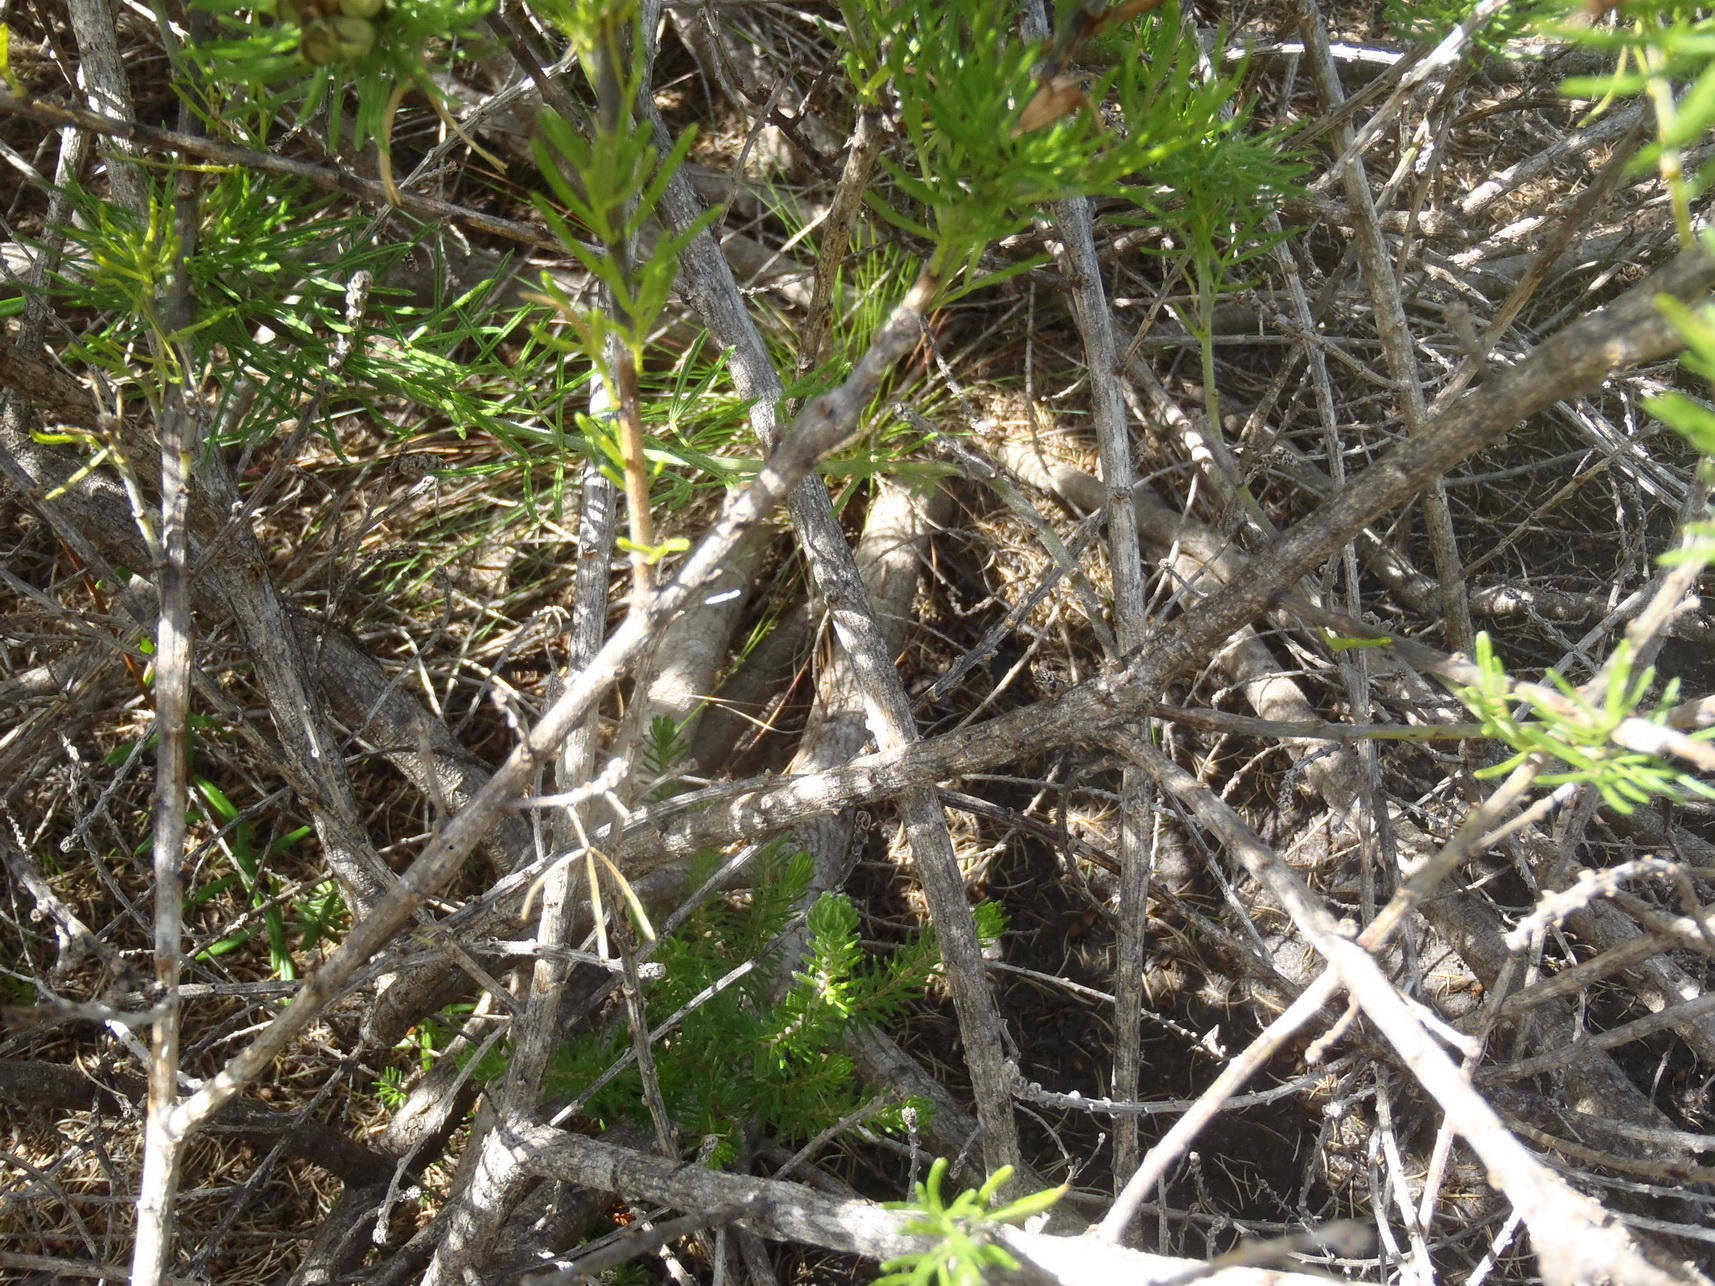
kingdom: Plantae
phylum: Tracheophyta
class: Magnoliopsida
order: Fabales
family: Fabaceae
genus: Psoralea
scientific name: Psoralea vanberkelae
